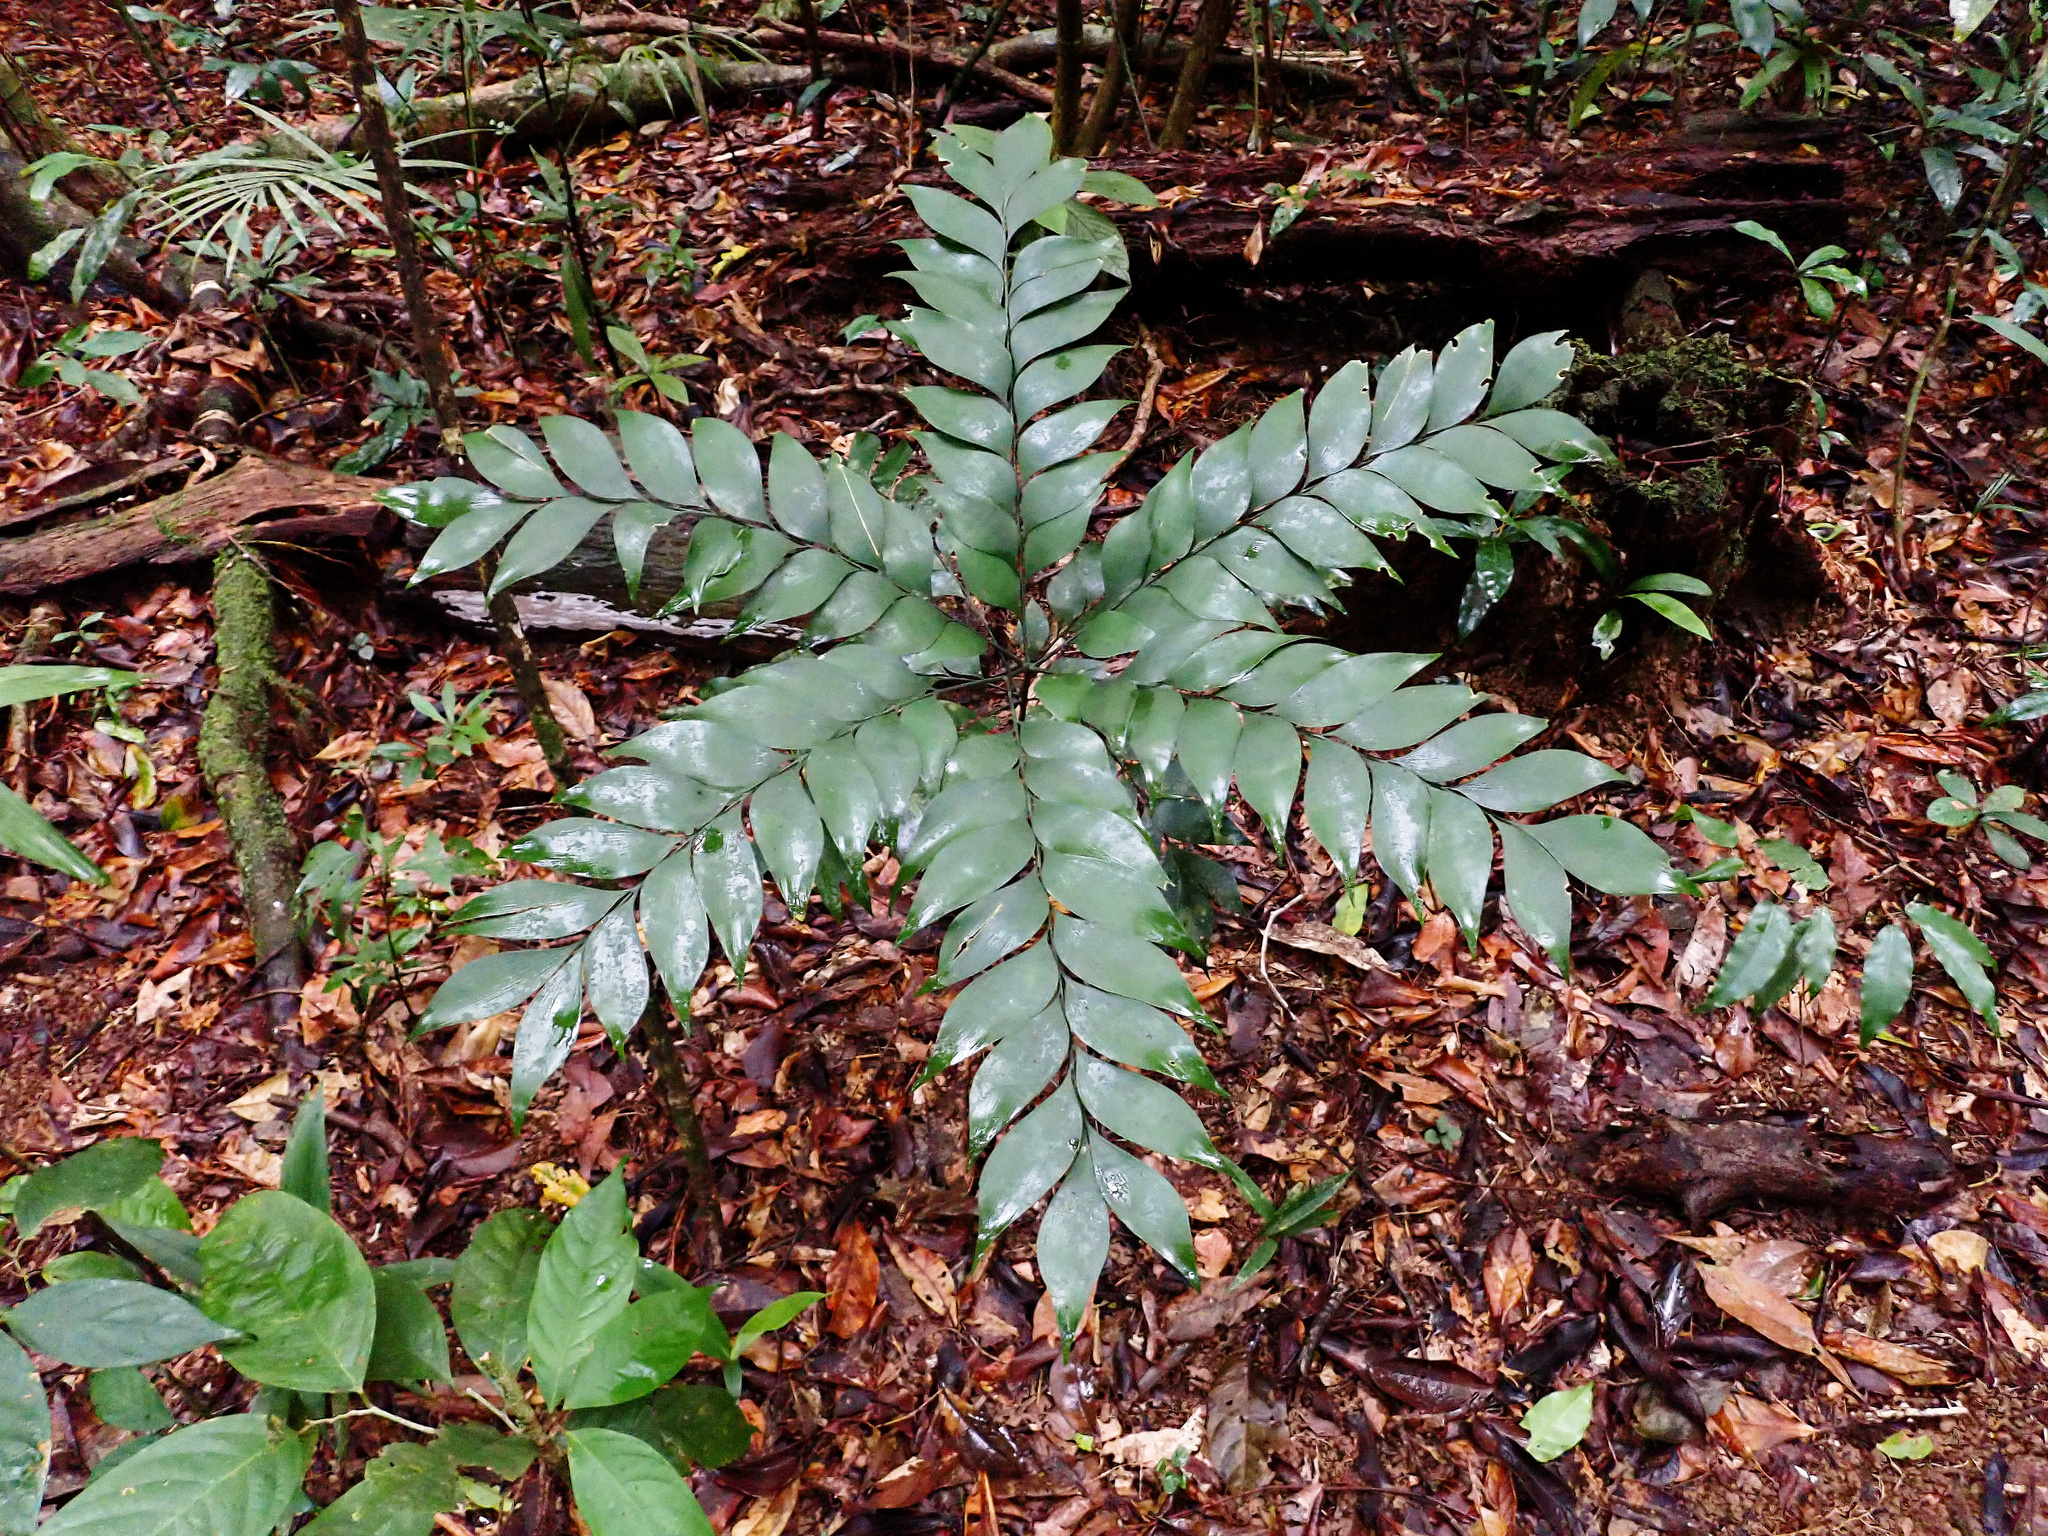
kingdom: Plantae
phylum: Tracheophyta
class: Cycadopsida
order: Cycadales
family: Zamiaceae
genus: Bowenia
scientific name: Bowenia spectabilis
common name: Zamia-fern
